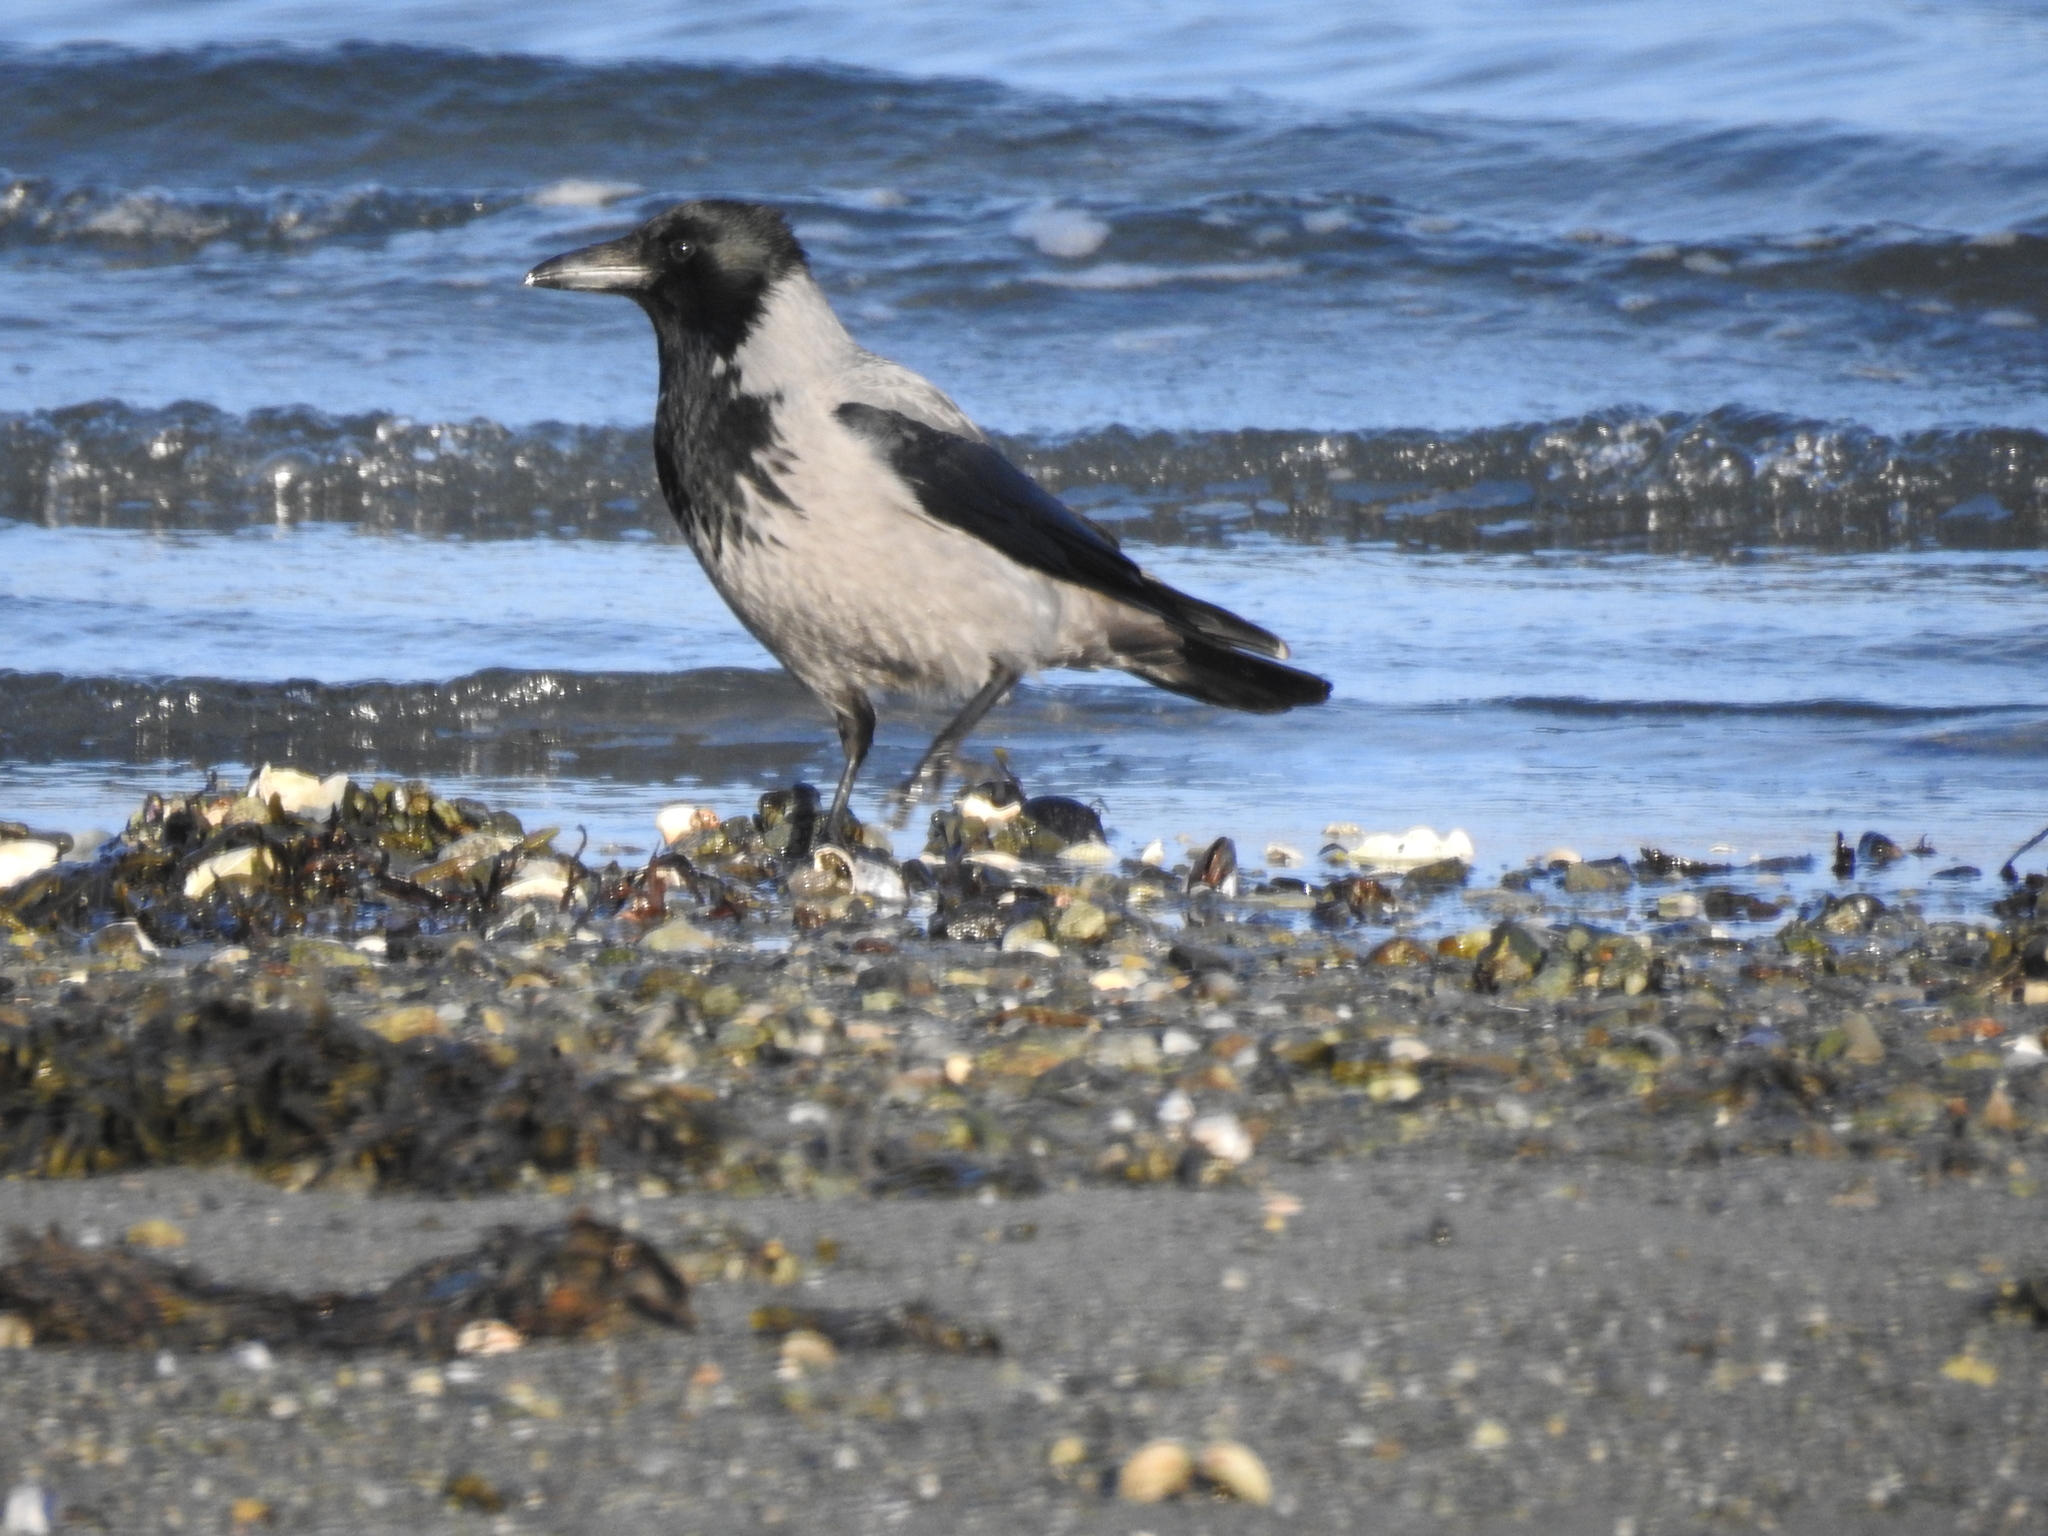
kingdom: Animalia
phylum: Chordata
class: Aves
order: Passeriformes
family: Corvidae
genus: Corvus
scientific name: Corvus cornix
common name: Hooded crow
